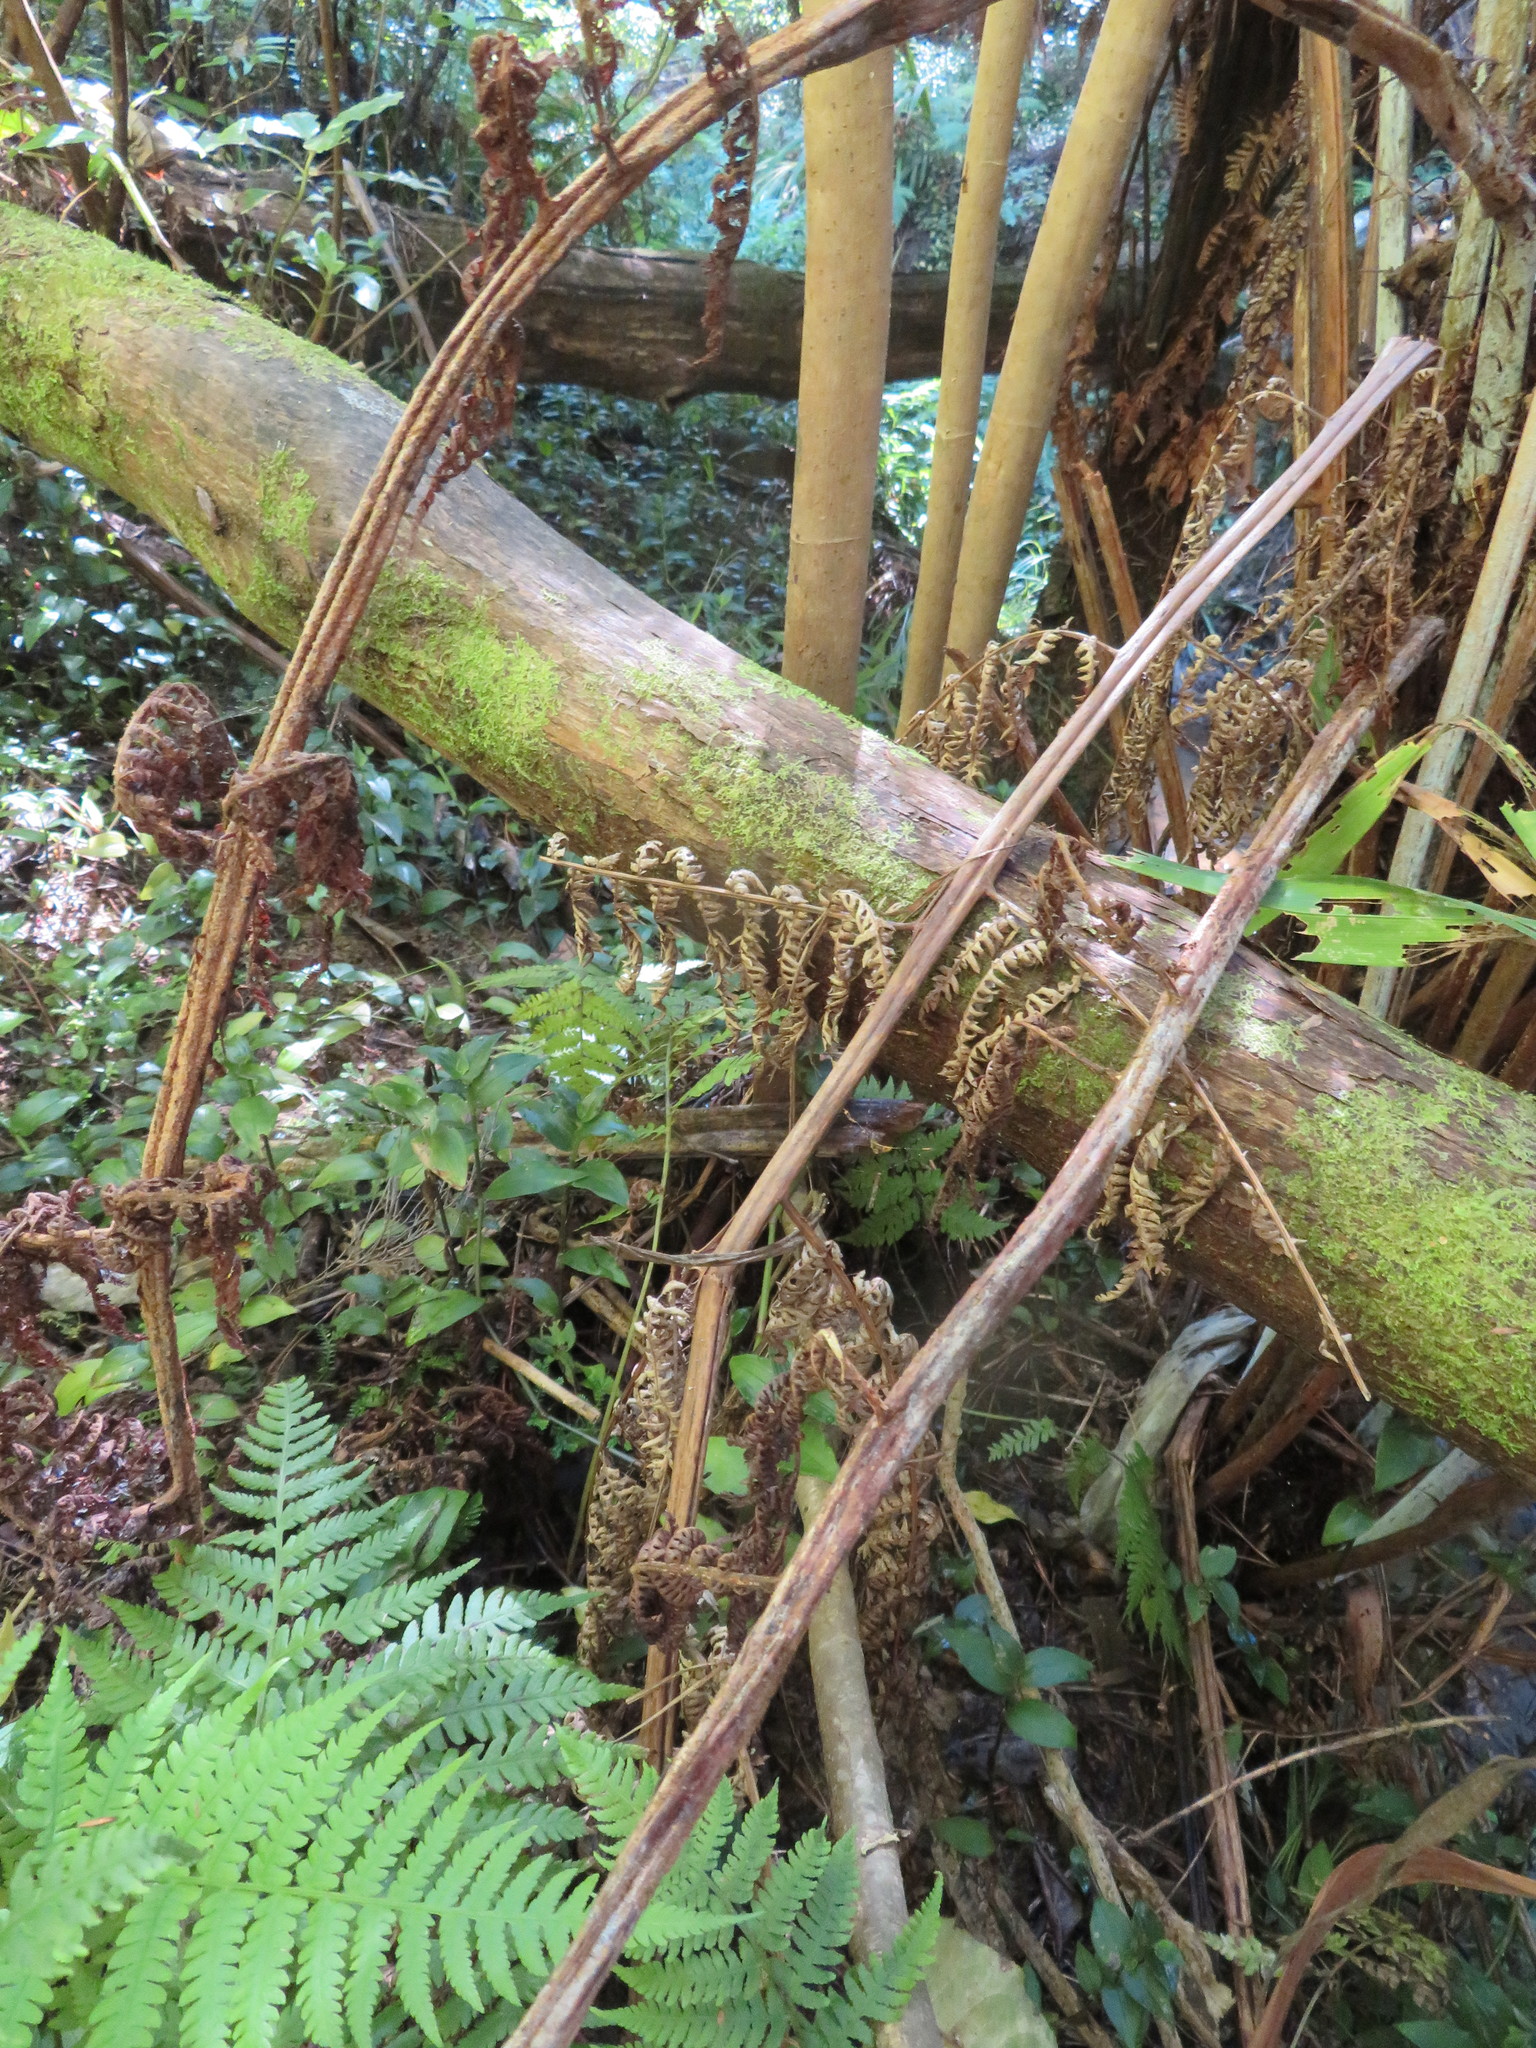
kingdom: Plantae
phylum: Tracheophyta
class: Polypodiopsida
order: Polypodiales
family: Athyriaceae
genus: Deparia
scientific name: Deparia petersenii
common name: Japanese false spleenwort
